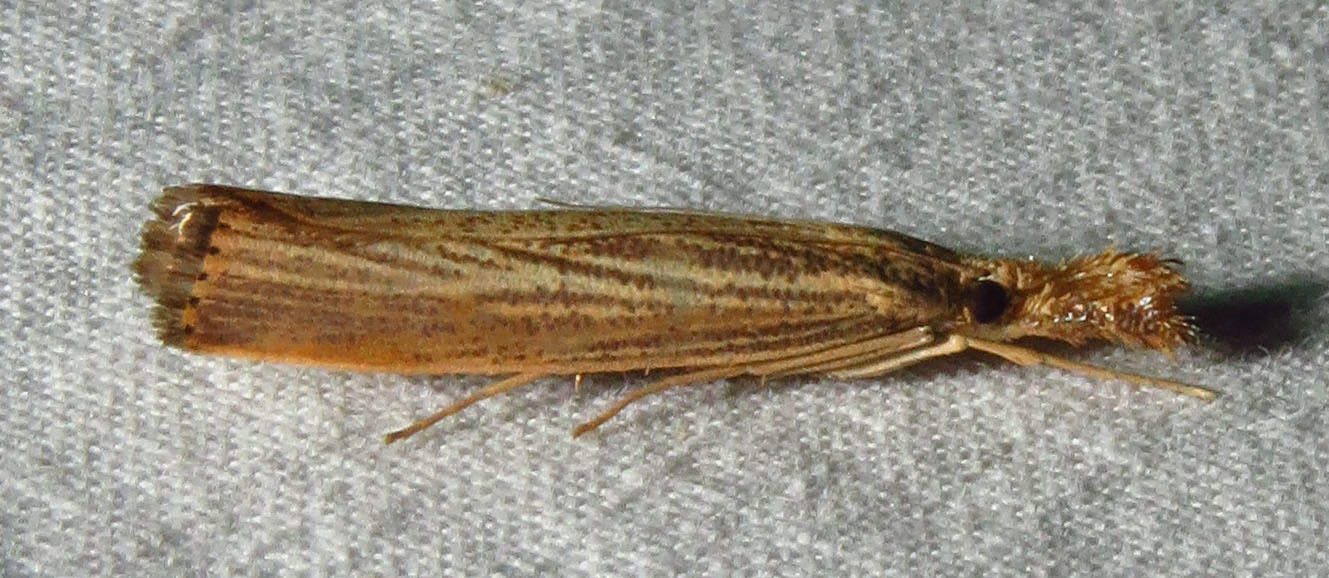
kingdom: Animalia
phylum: Arthropoda
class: Insecta
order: Lepidoptera
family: Crambidae
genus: Agriphila
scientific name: Agriphila vulgivagellus
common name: Vagabond crambus moth
